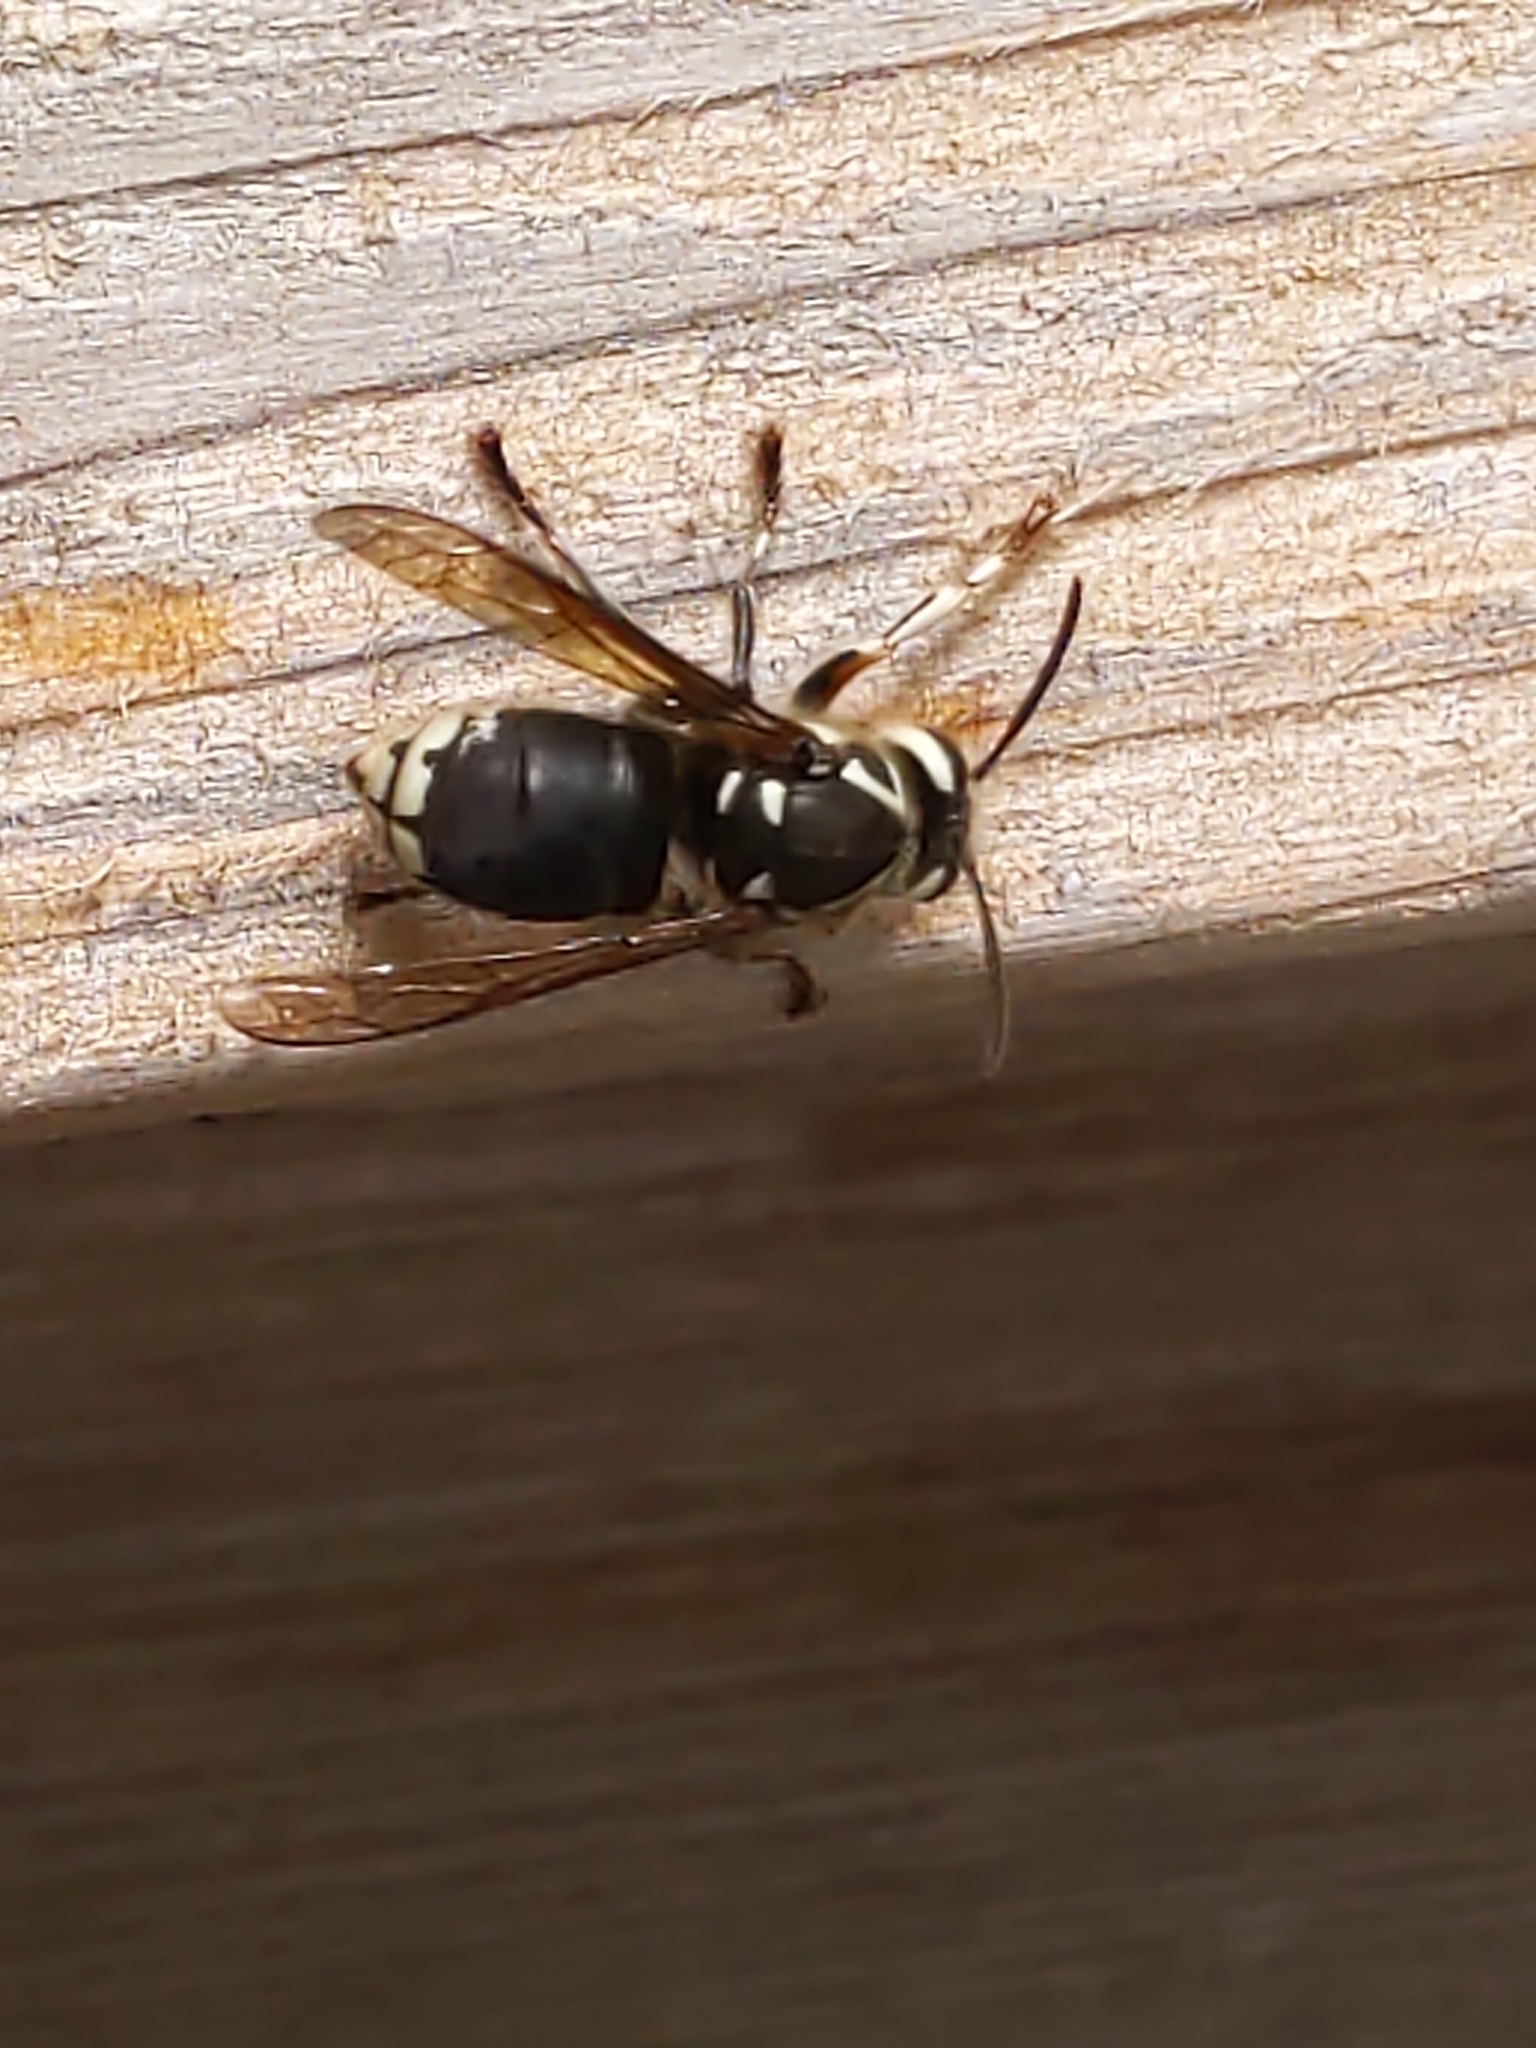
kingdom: Animalia
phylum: Arthropoda
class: Insecta
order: Hymenoptera
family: Vespidae
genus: Dolichovespula
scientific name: Dolichovespula maculata
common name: Bald-faced hornet
